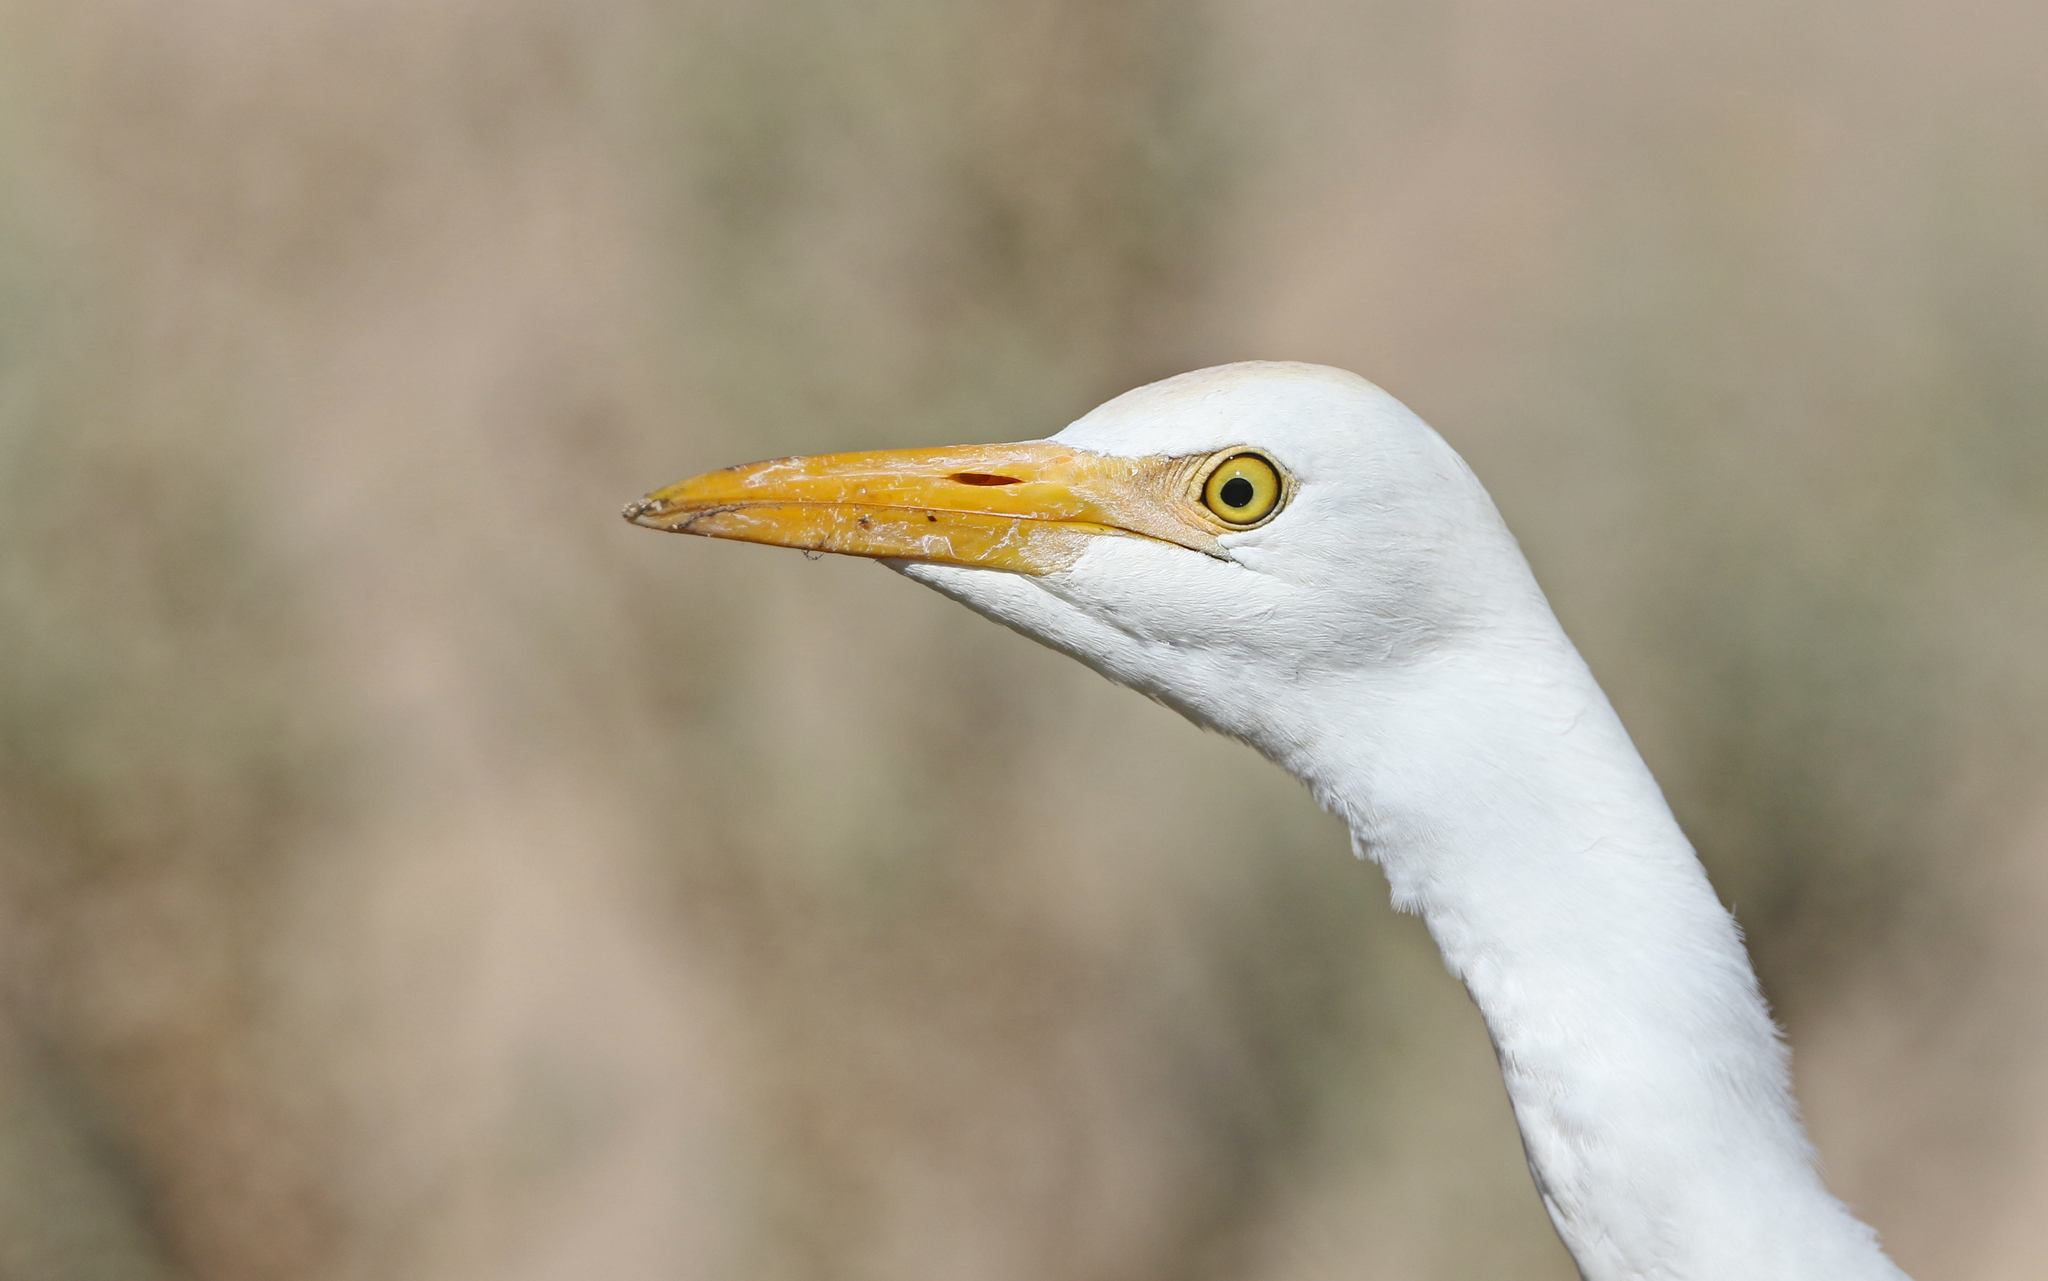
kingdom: Animalia
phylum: Chordata
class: Aves
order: Pelecaniformes
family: Ardeidae
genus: Bubulcus
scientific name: Bubulcus ibis
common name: Cattle egret
